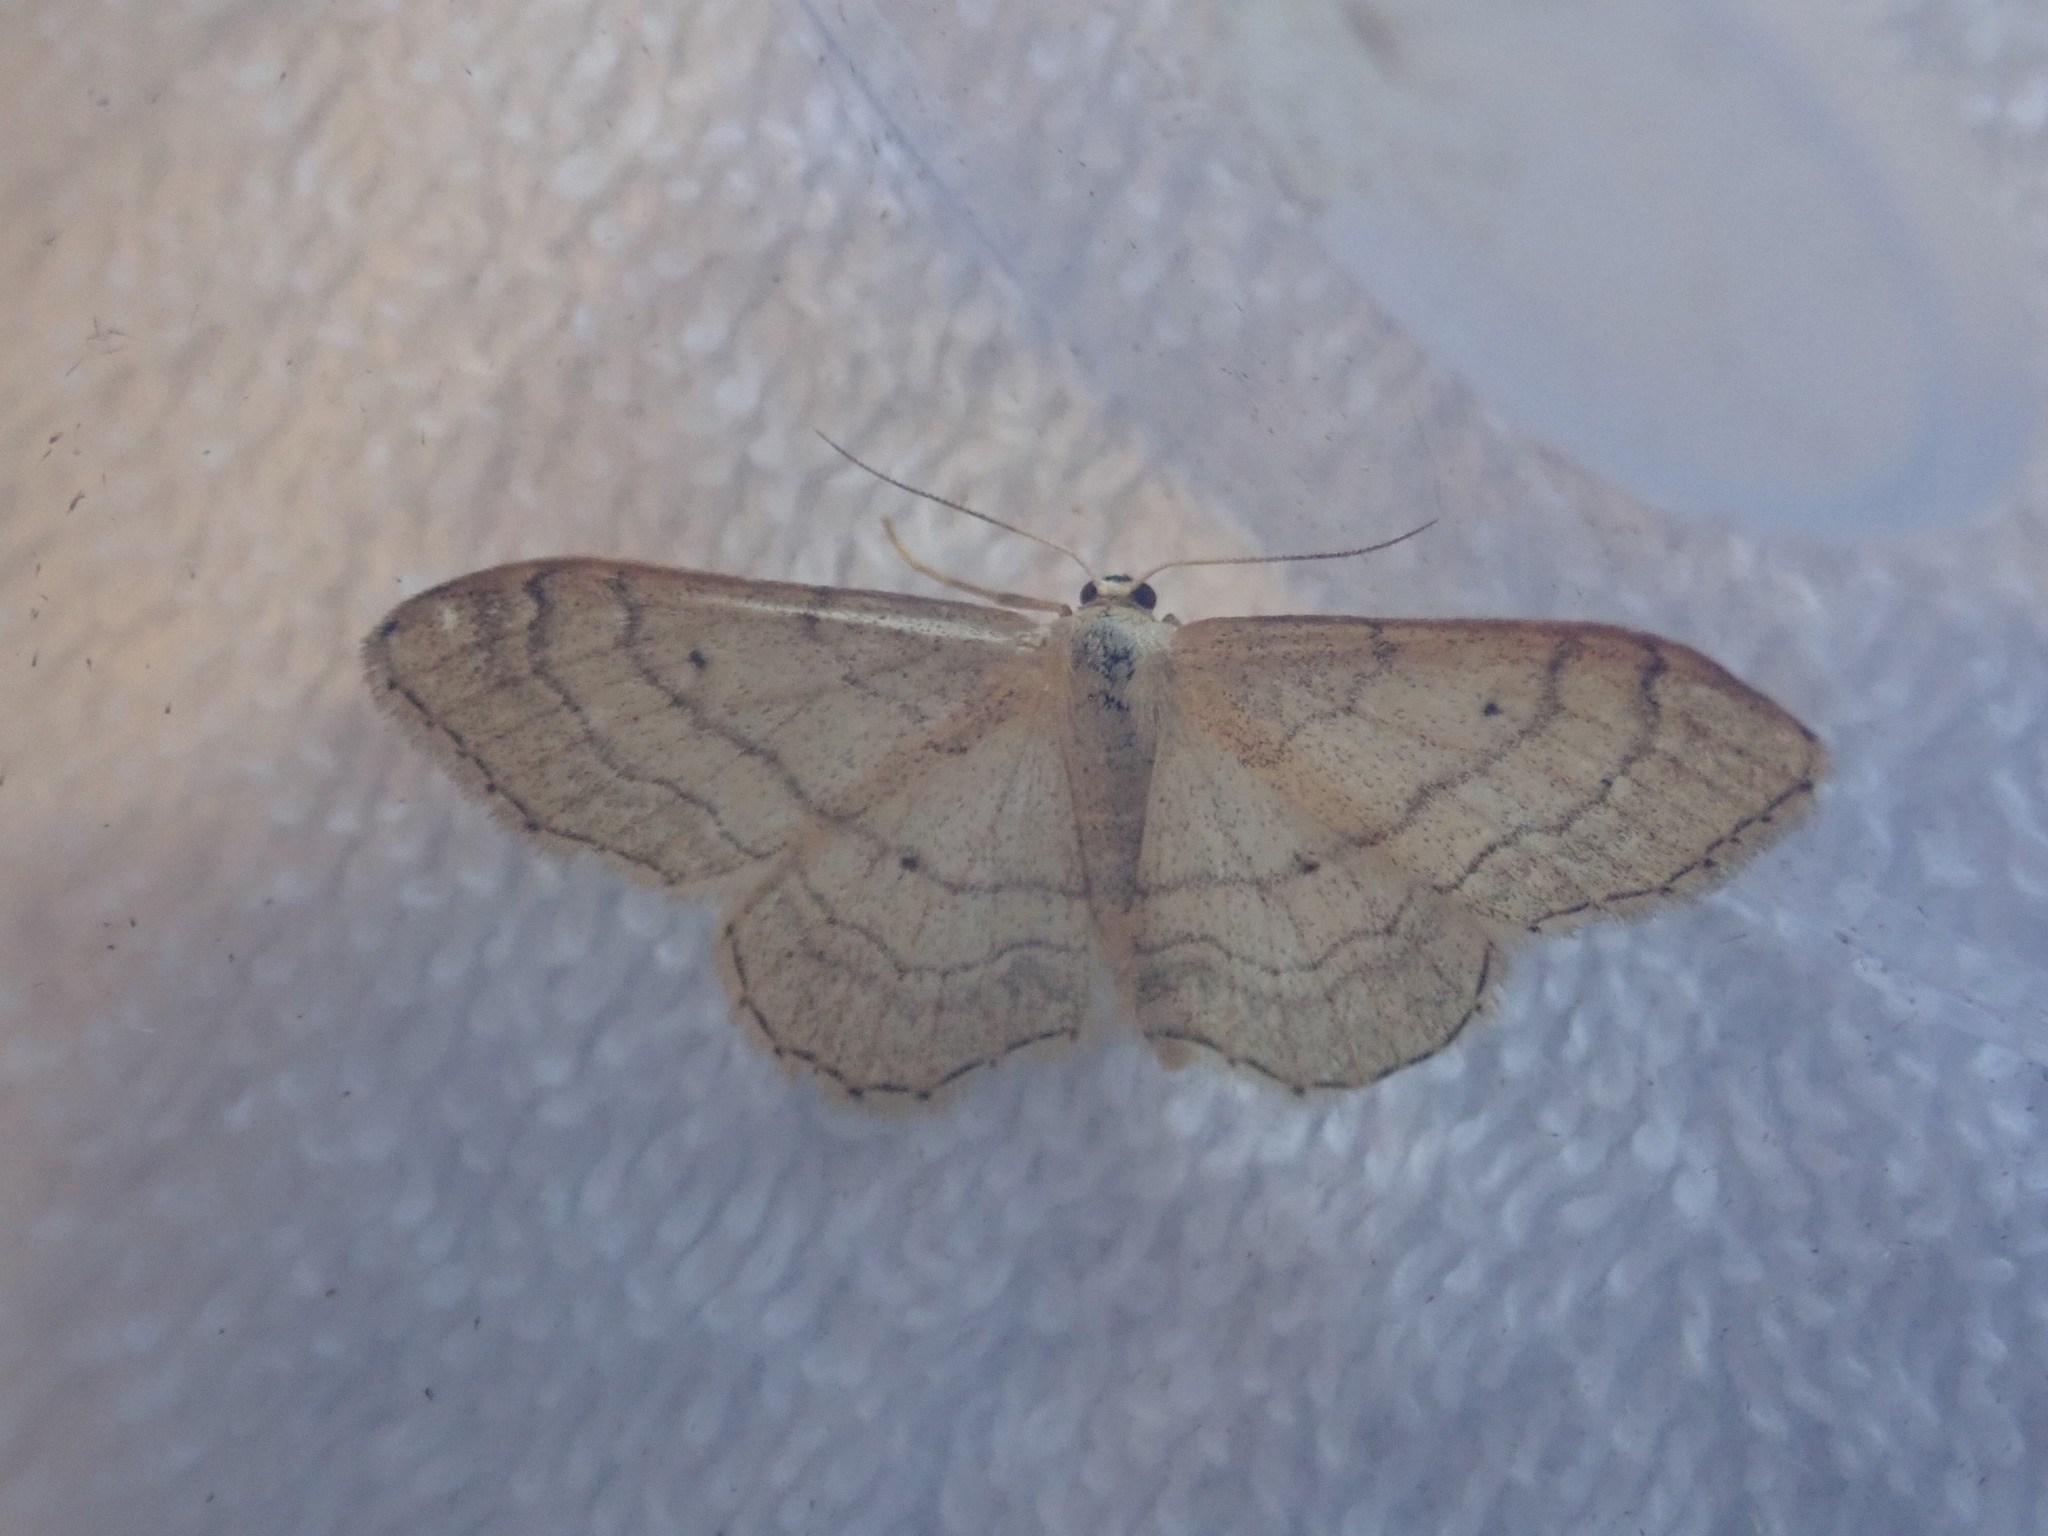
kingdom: Animalia
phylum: Arthropoda
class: Insecta
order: Lepidoptera
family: Geometridae
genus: Idaea
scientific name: Idaea aversata
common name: Riband wave
